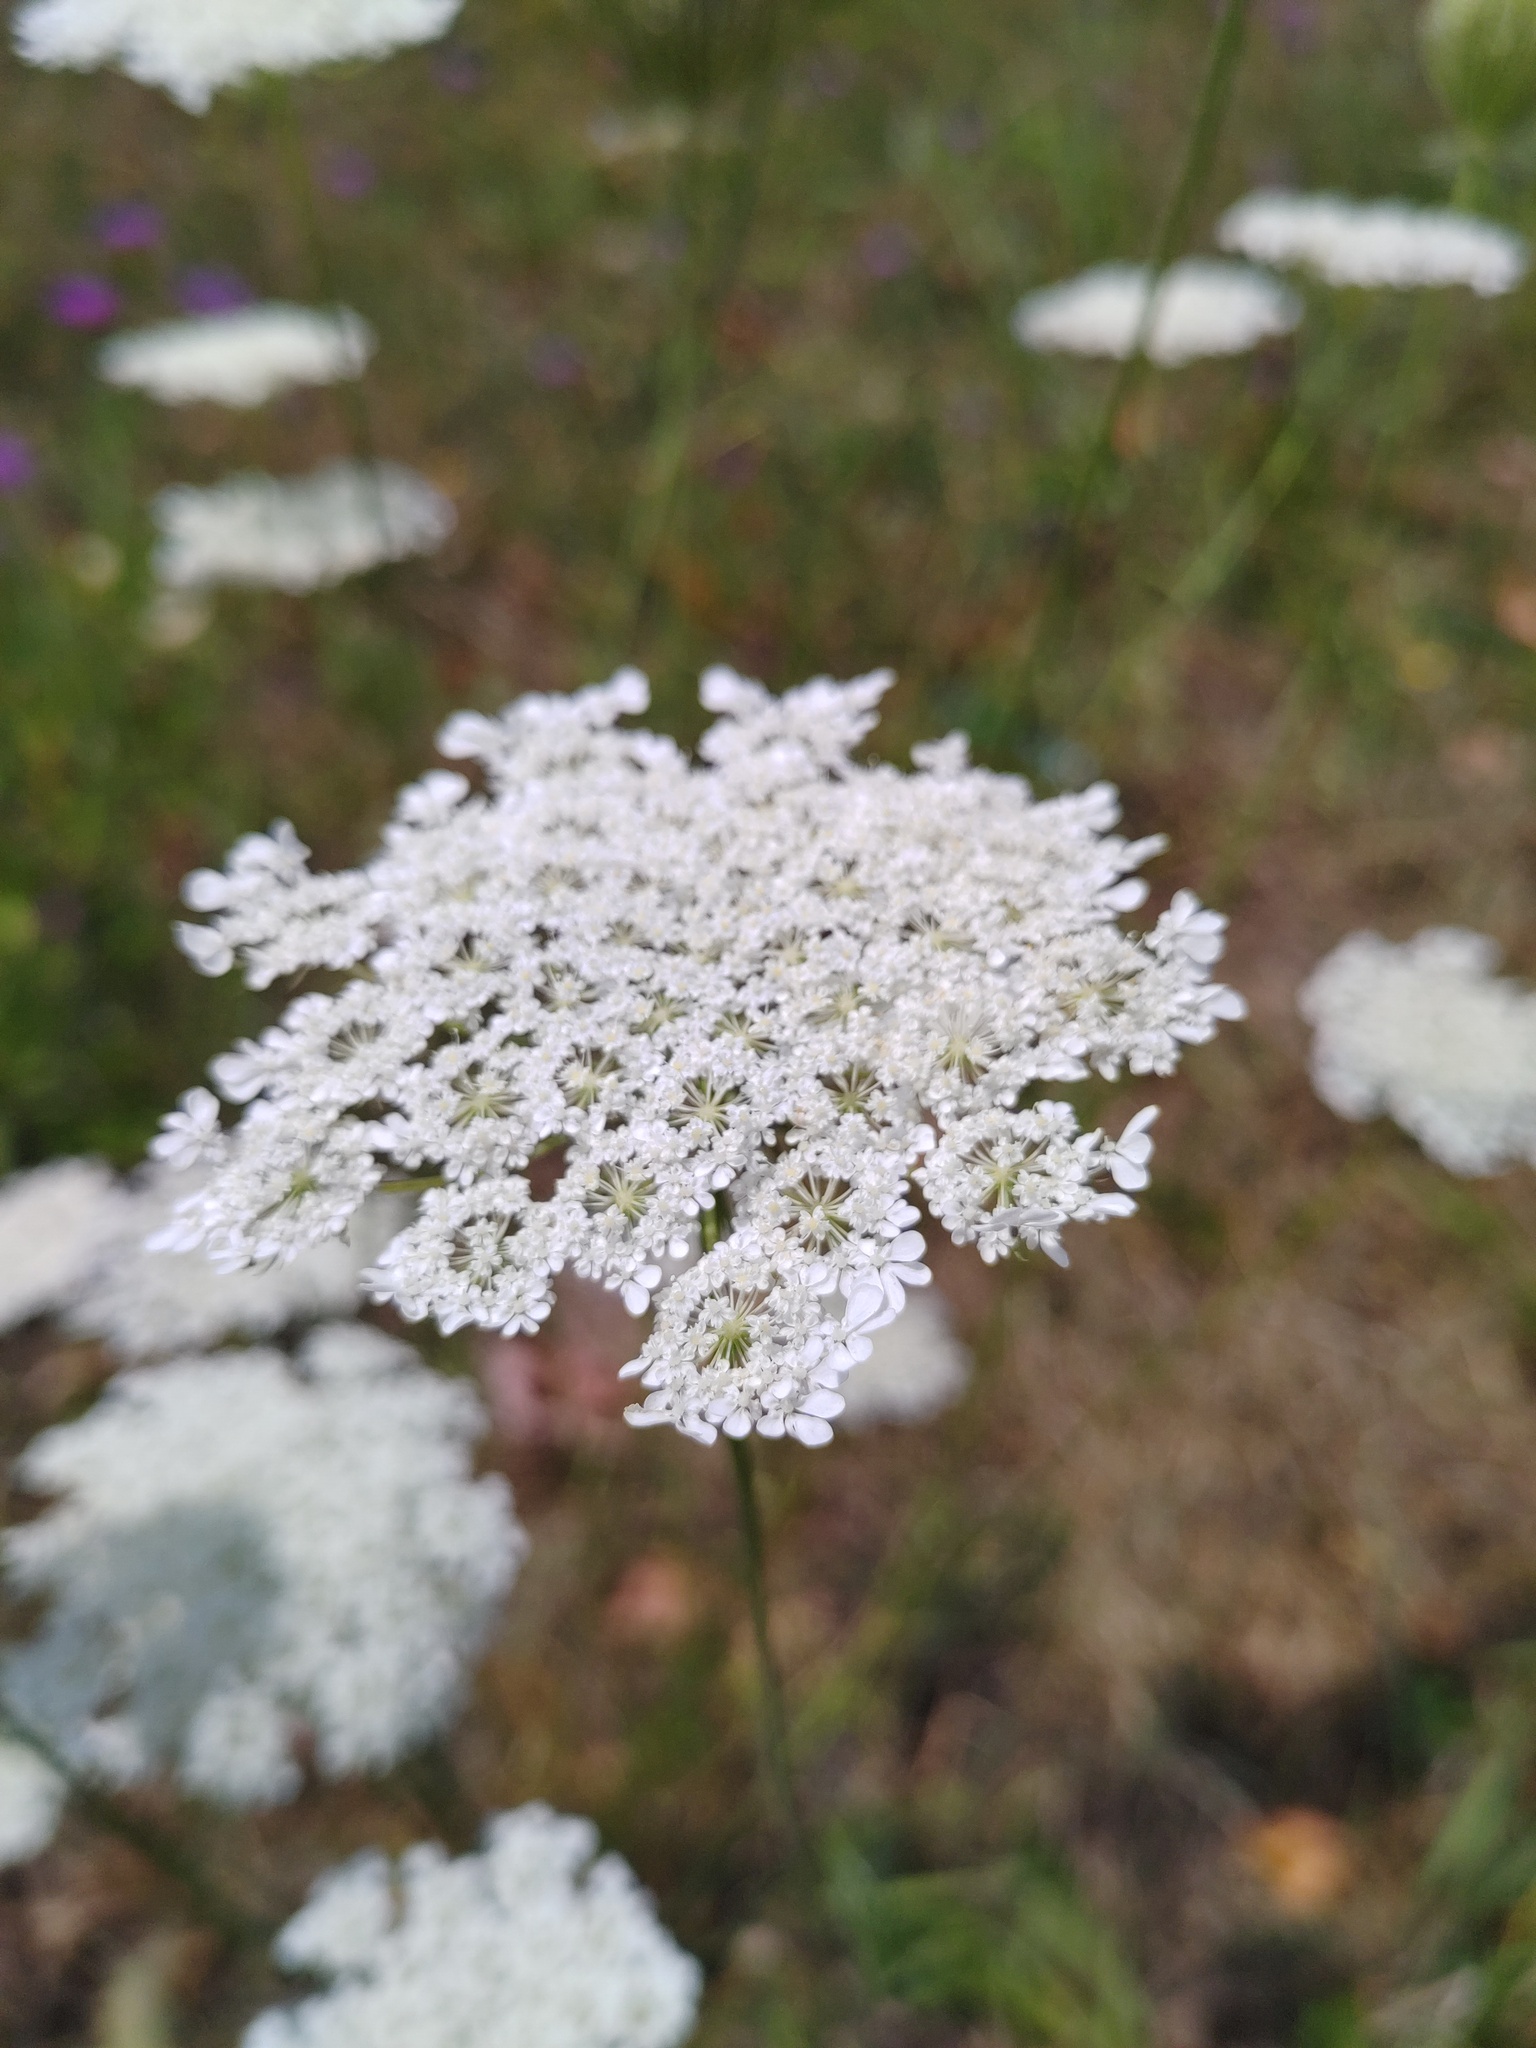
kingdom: Plantae
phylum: Tracheophyta
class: Magnoliopsida
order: Apiales
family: Apiaceae
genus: Daucus
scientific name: Daucus carota
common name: Wild carrot
